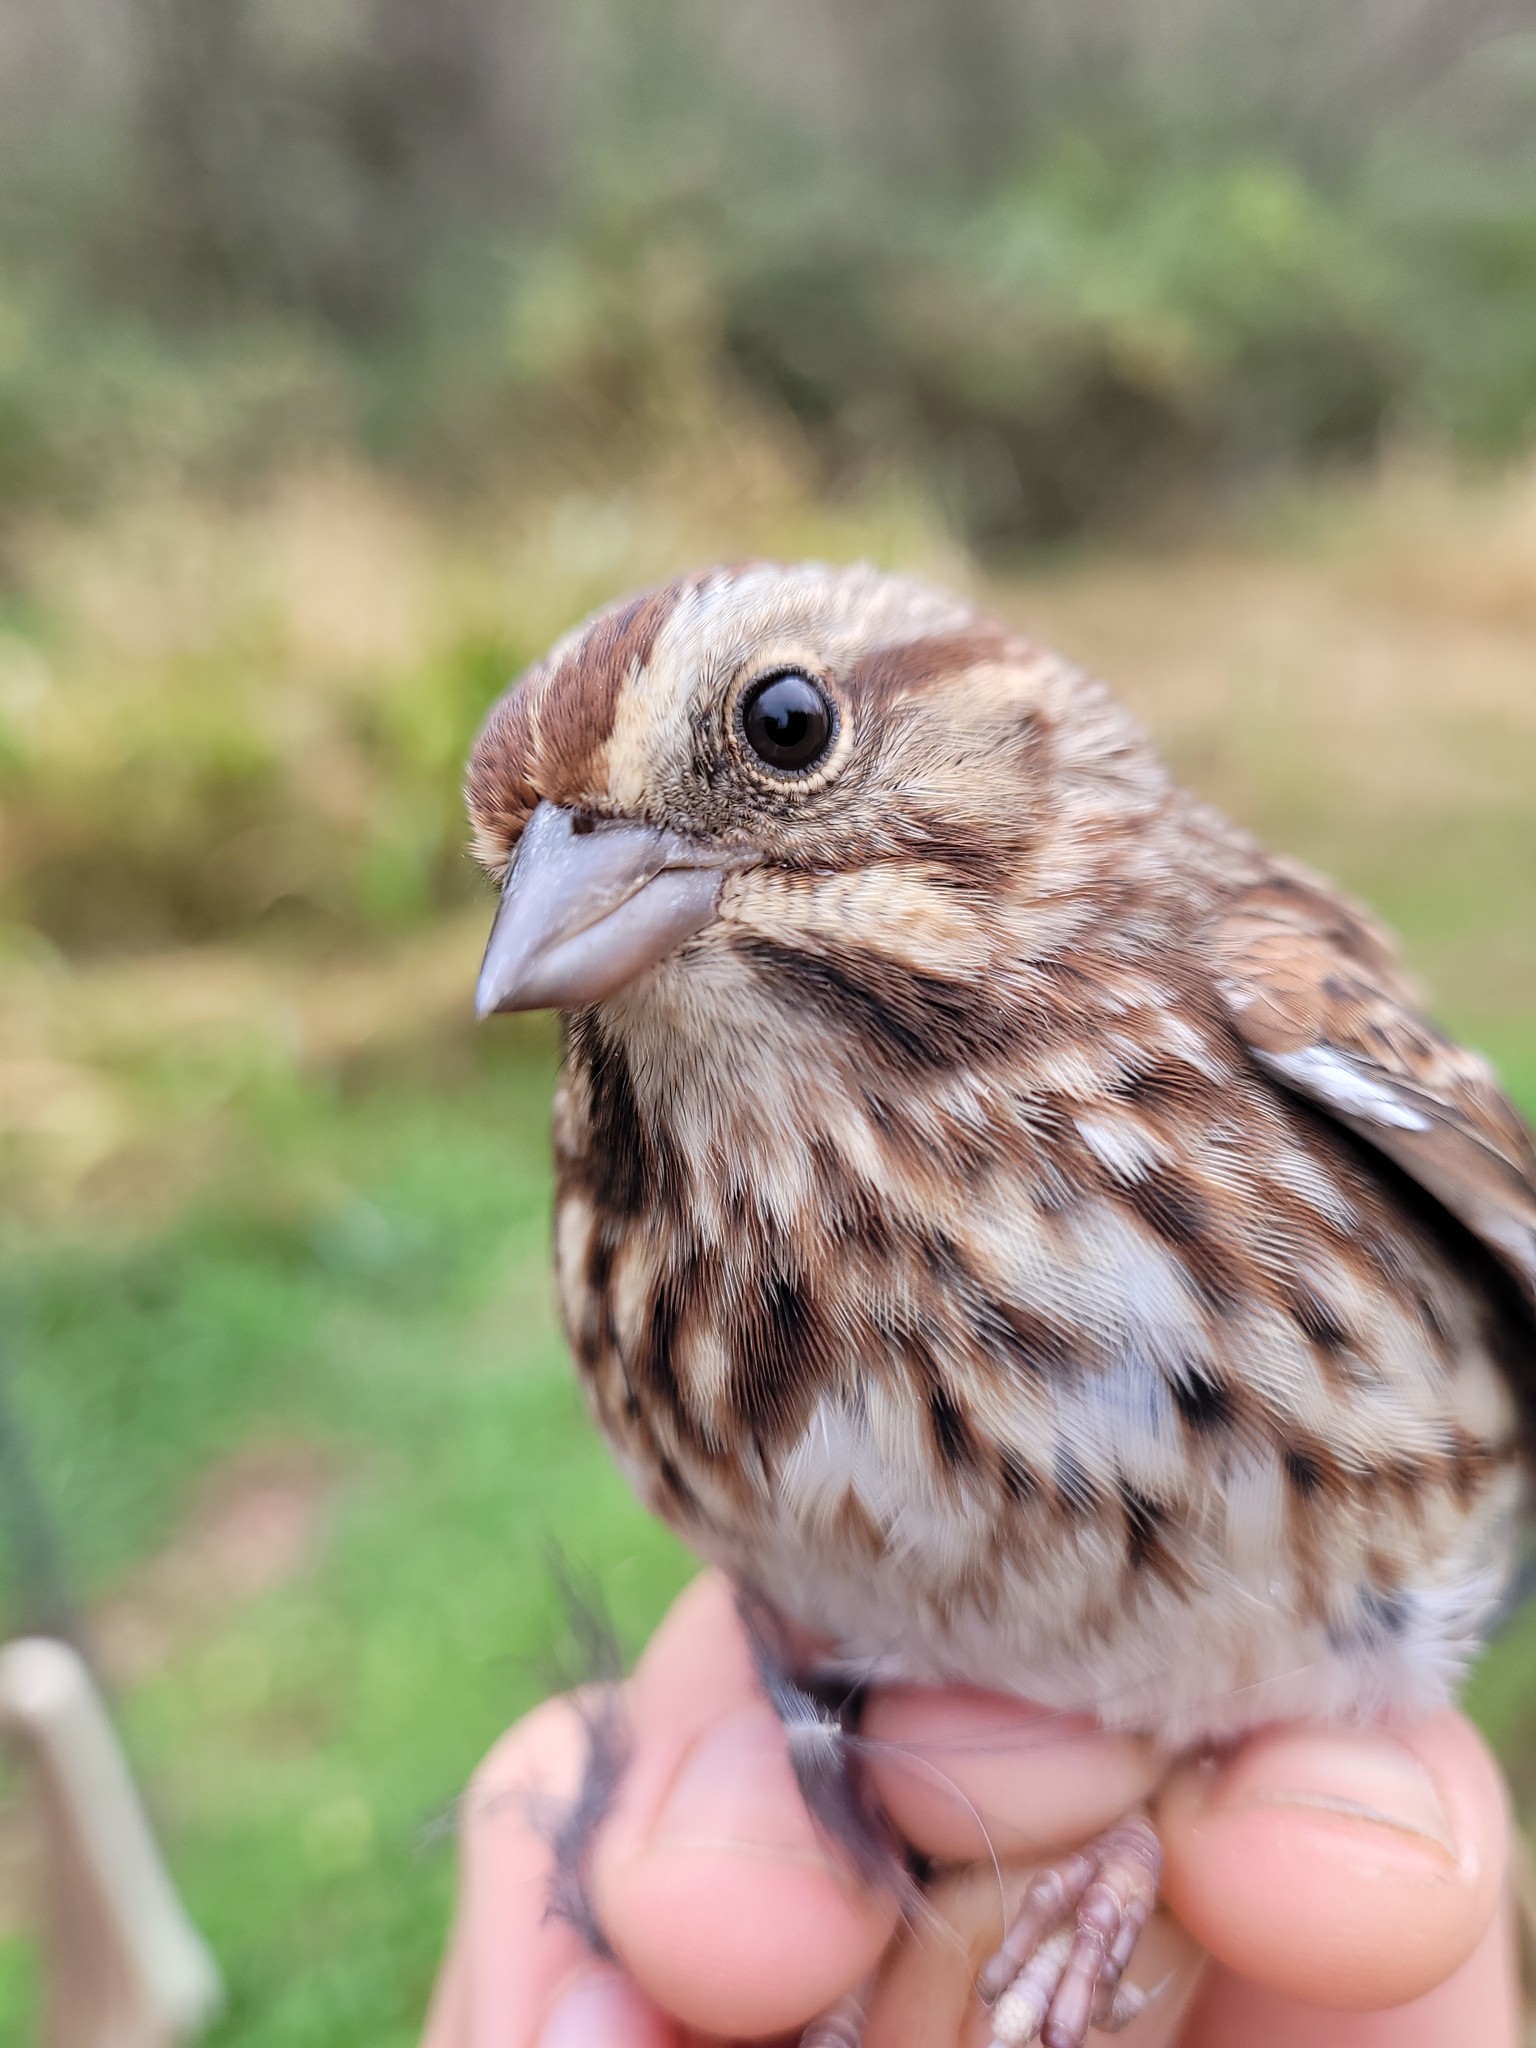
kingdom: Animalia
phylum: Chordata
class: Aves
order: Passeriformes
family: Passerellidae
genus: Melospiza
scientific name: Melospiza melodia
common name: Song sparrow
